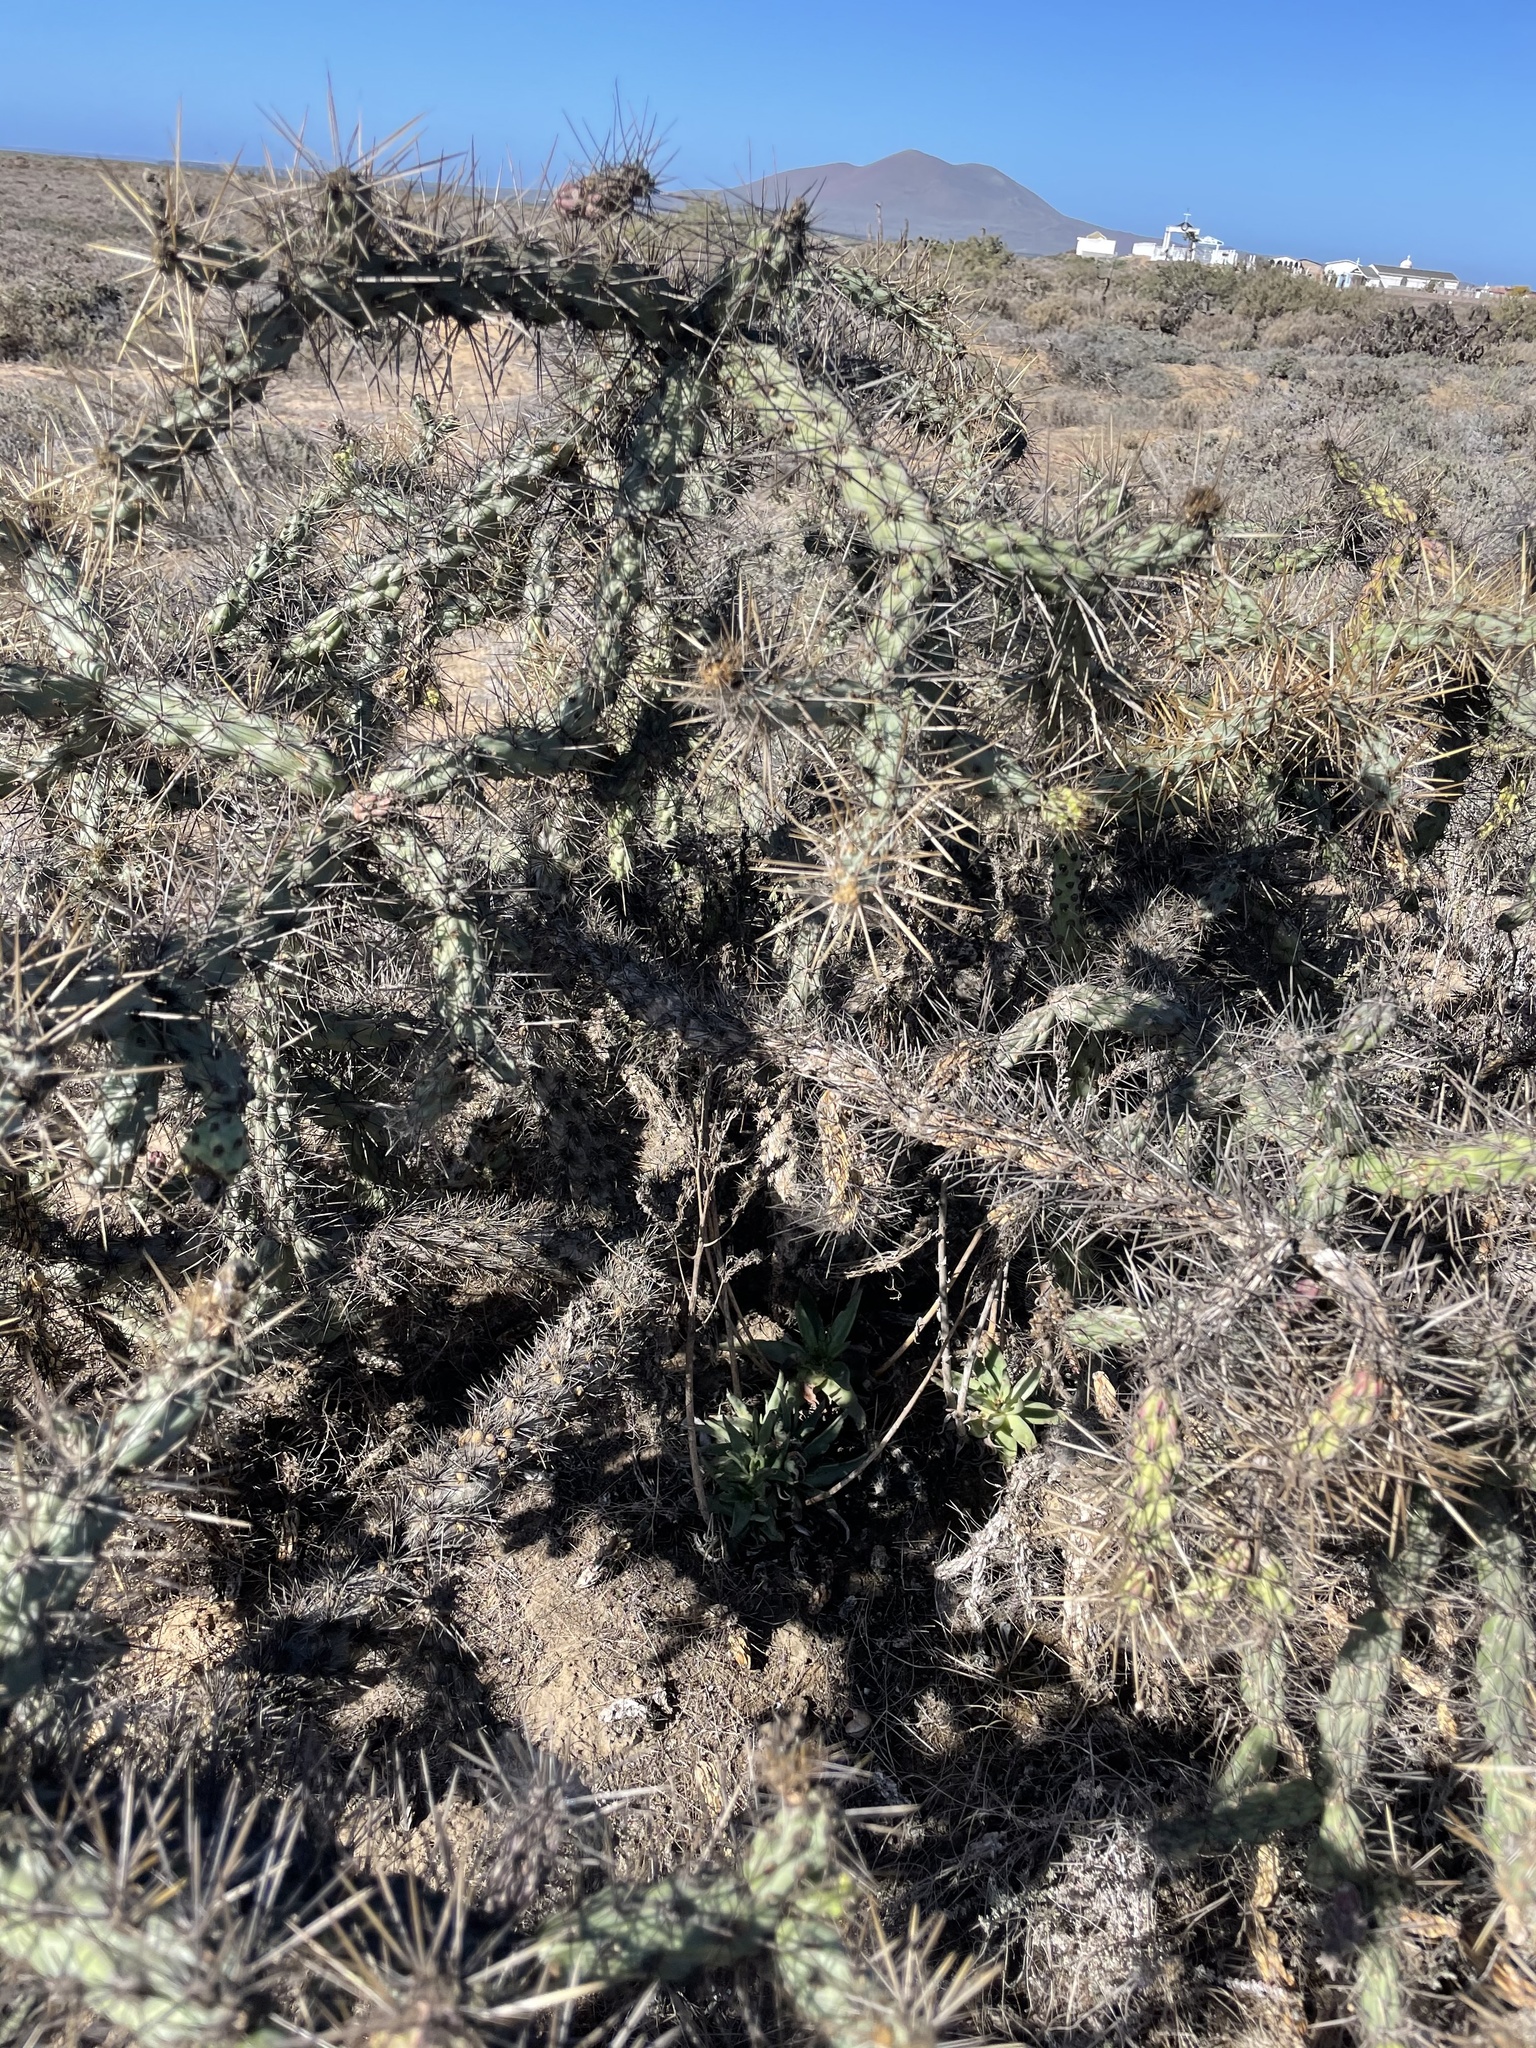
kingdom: Plantae
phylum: Tracheophyta
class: Magnoliopsida
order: Caryophyllales
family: Cactaceae
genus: Cylindropuntia
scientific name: Cylindropuntia molesta
